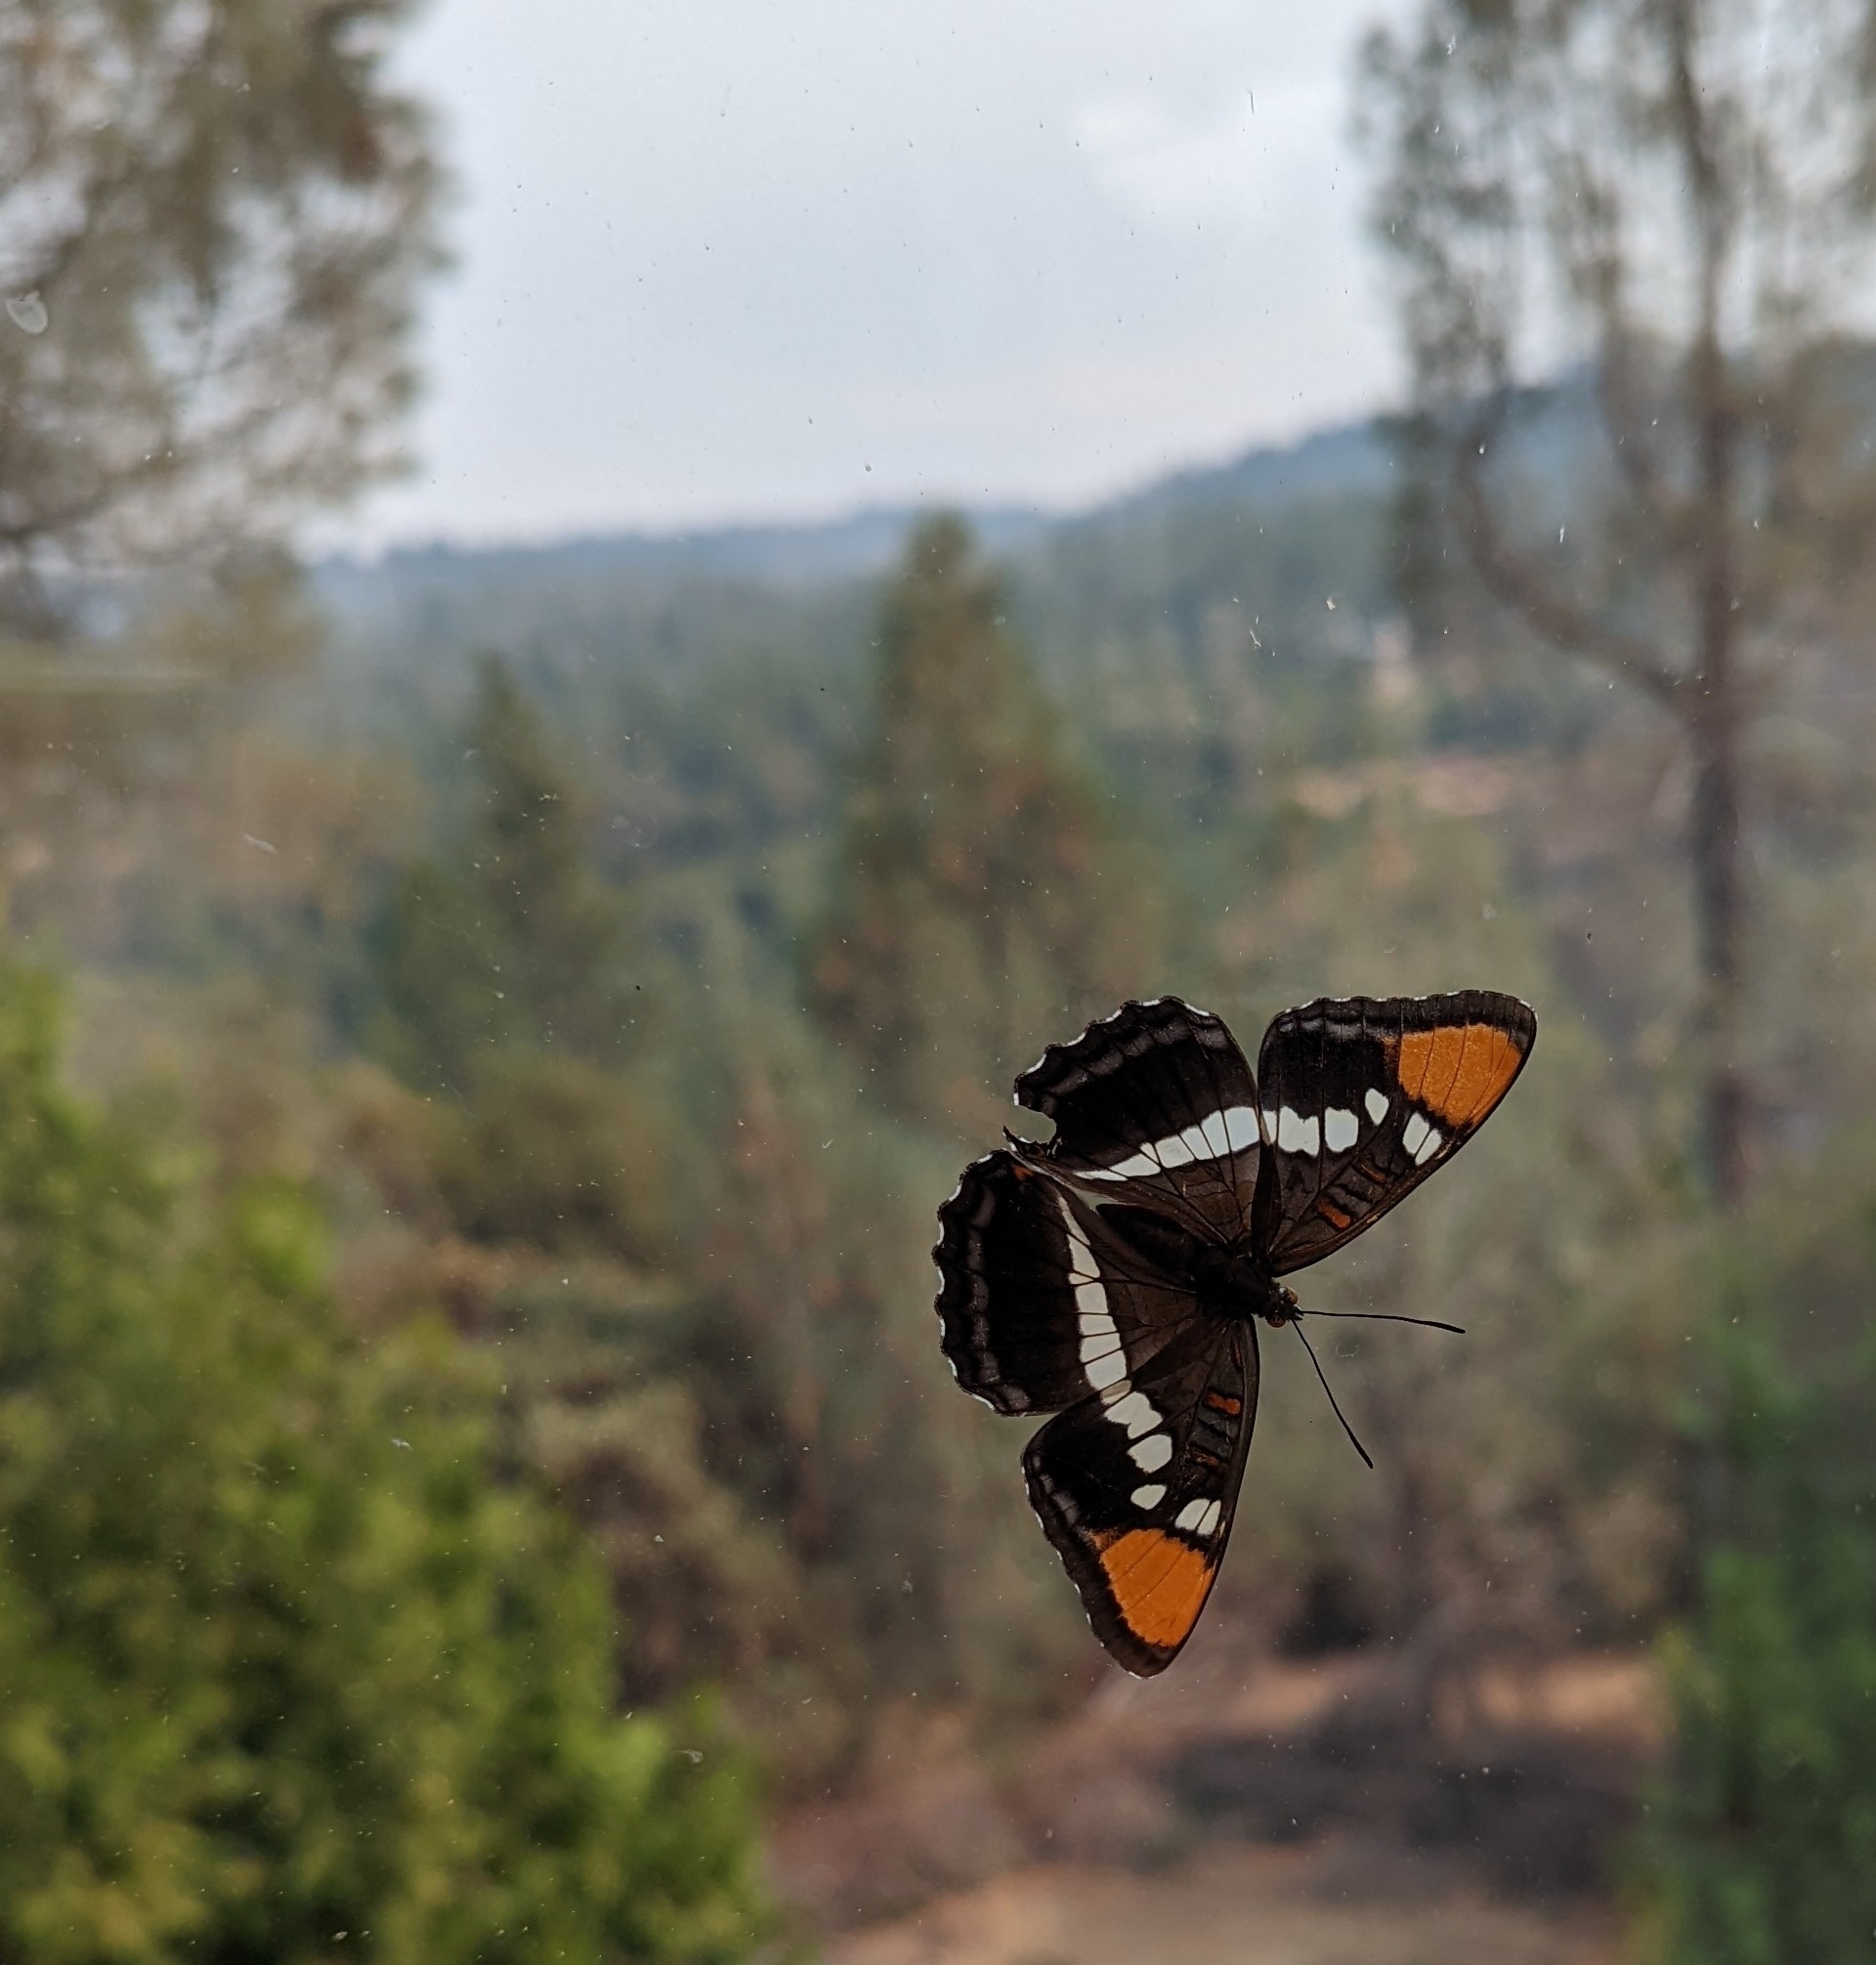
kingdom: Animalia
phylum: Arthropoda
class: Insecta
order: Lepidoptera
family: Nymphalidae
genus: Limenitis
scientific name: Limenitis bredowii
